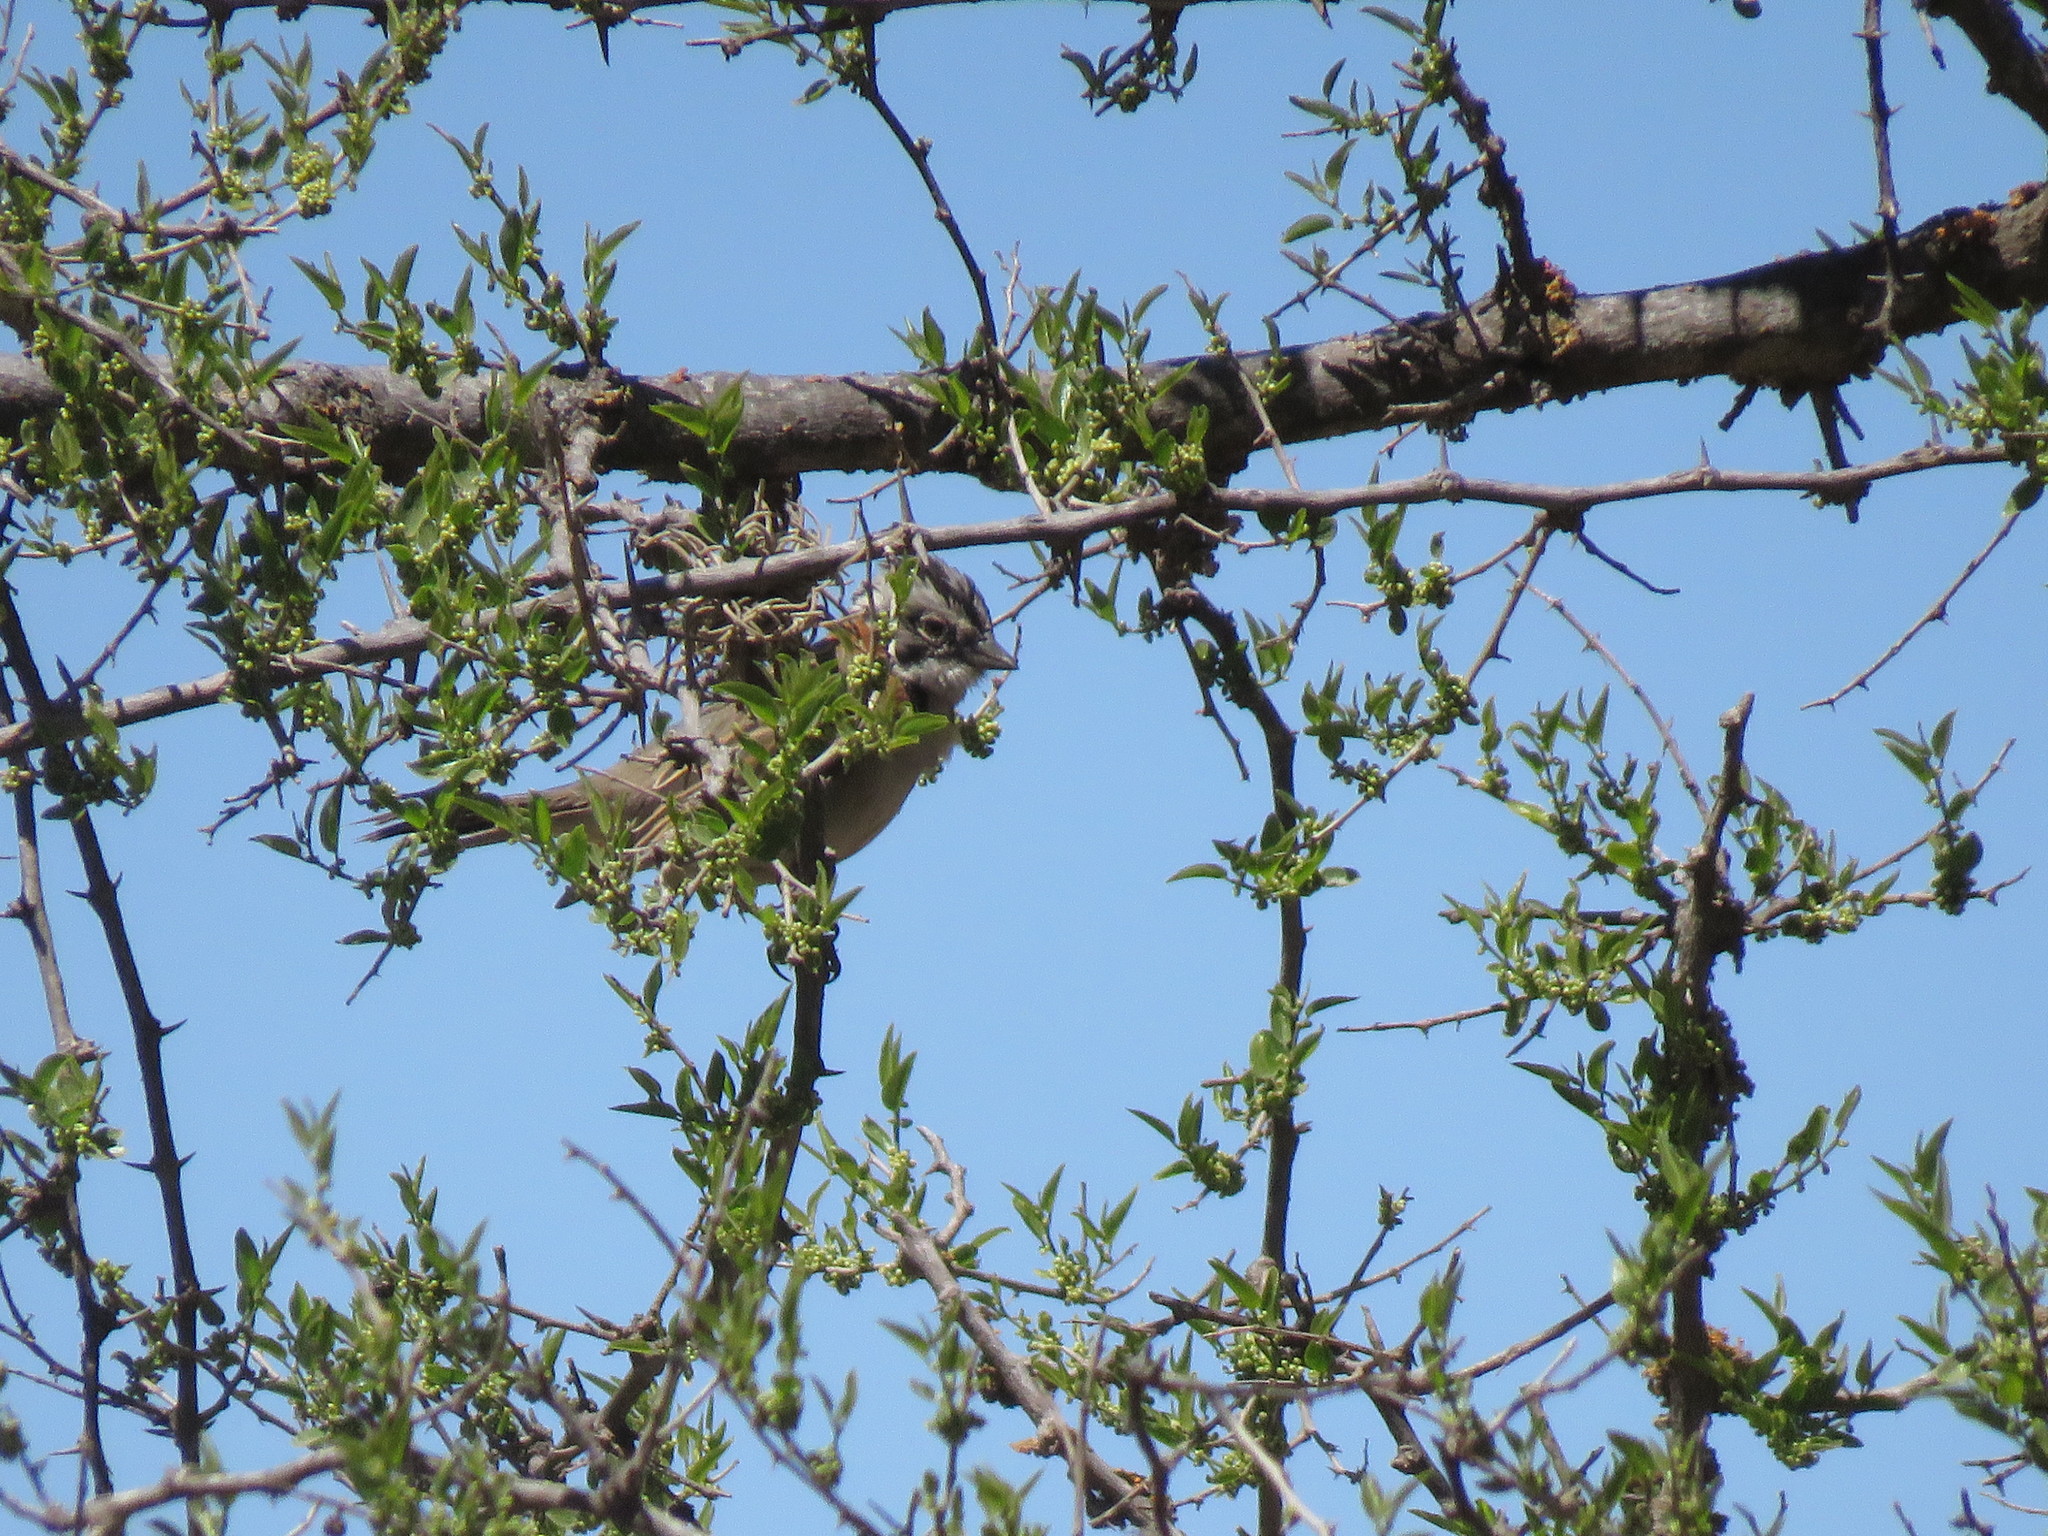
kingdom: Animalia
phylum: Chordata
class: Aves
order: Passeriformes
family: Passerellidae
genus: Zonotrichia
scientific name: Zonotrichia capensis
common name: Rufous-collared sparrow
